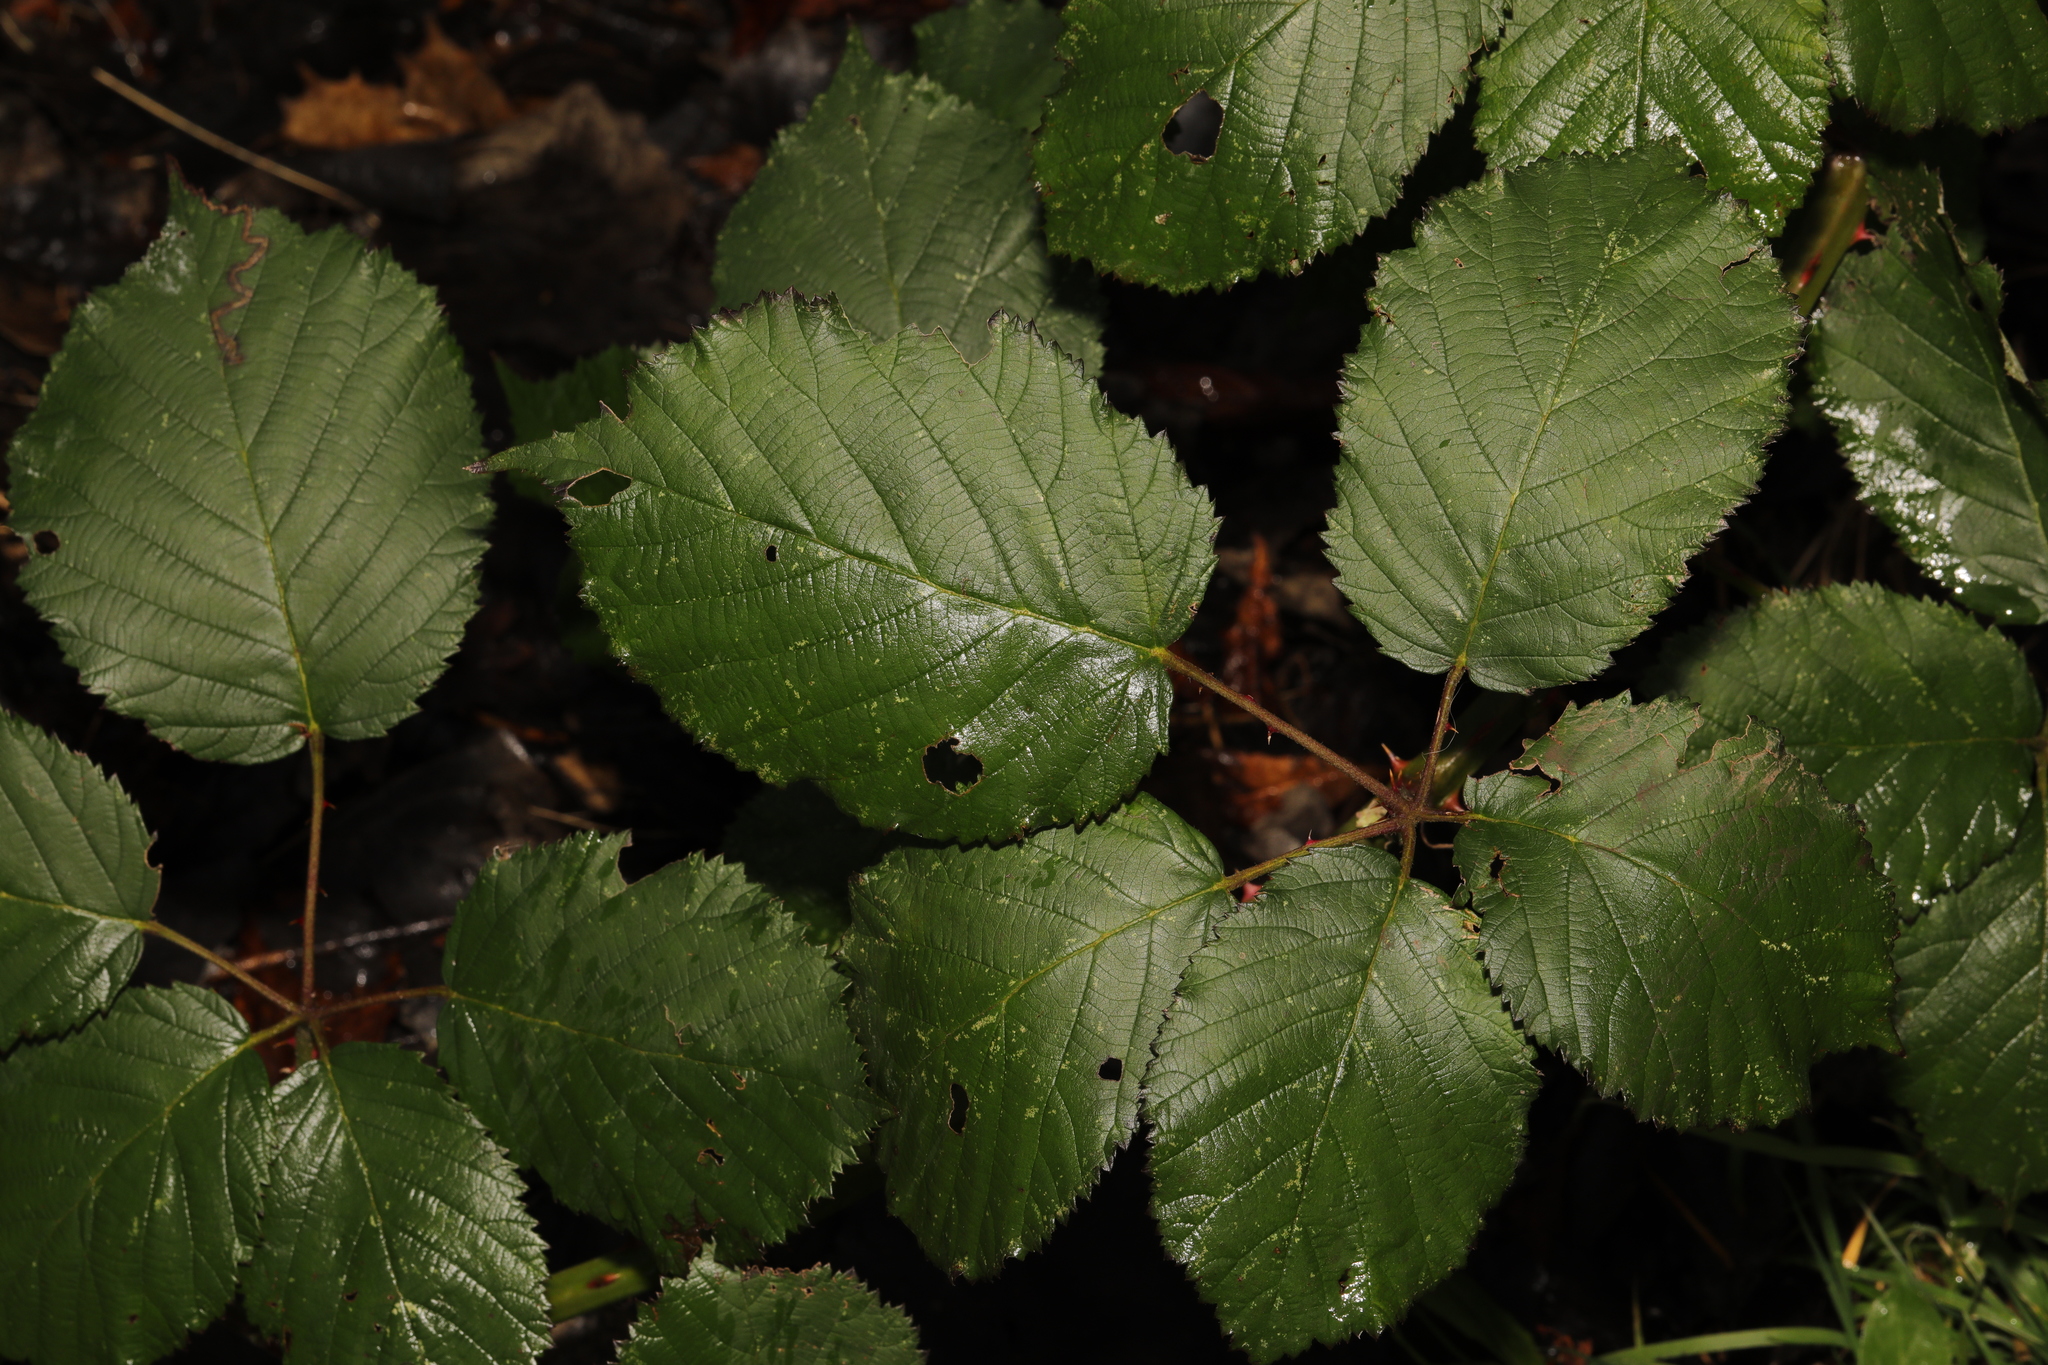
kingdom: Plantae
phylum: Tracheophyta
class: Magnoliopsida
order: Rosales
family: Rosaceae
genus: Rubus
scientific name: Rubus armeniacus
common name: Himalayan blackberry
